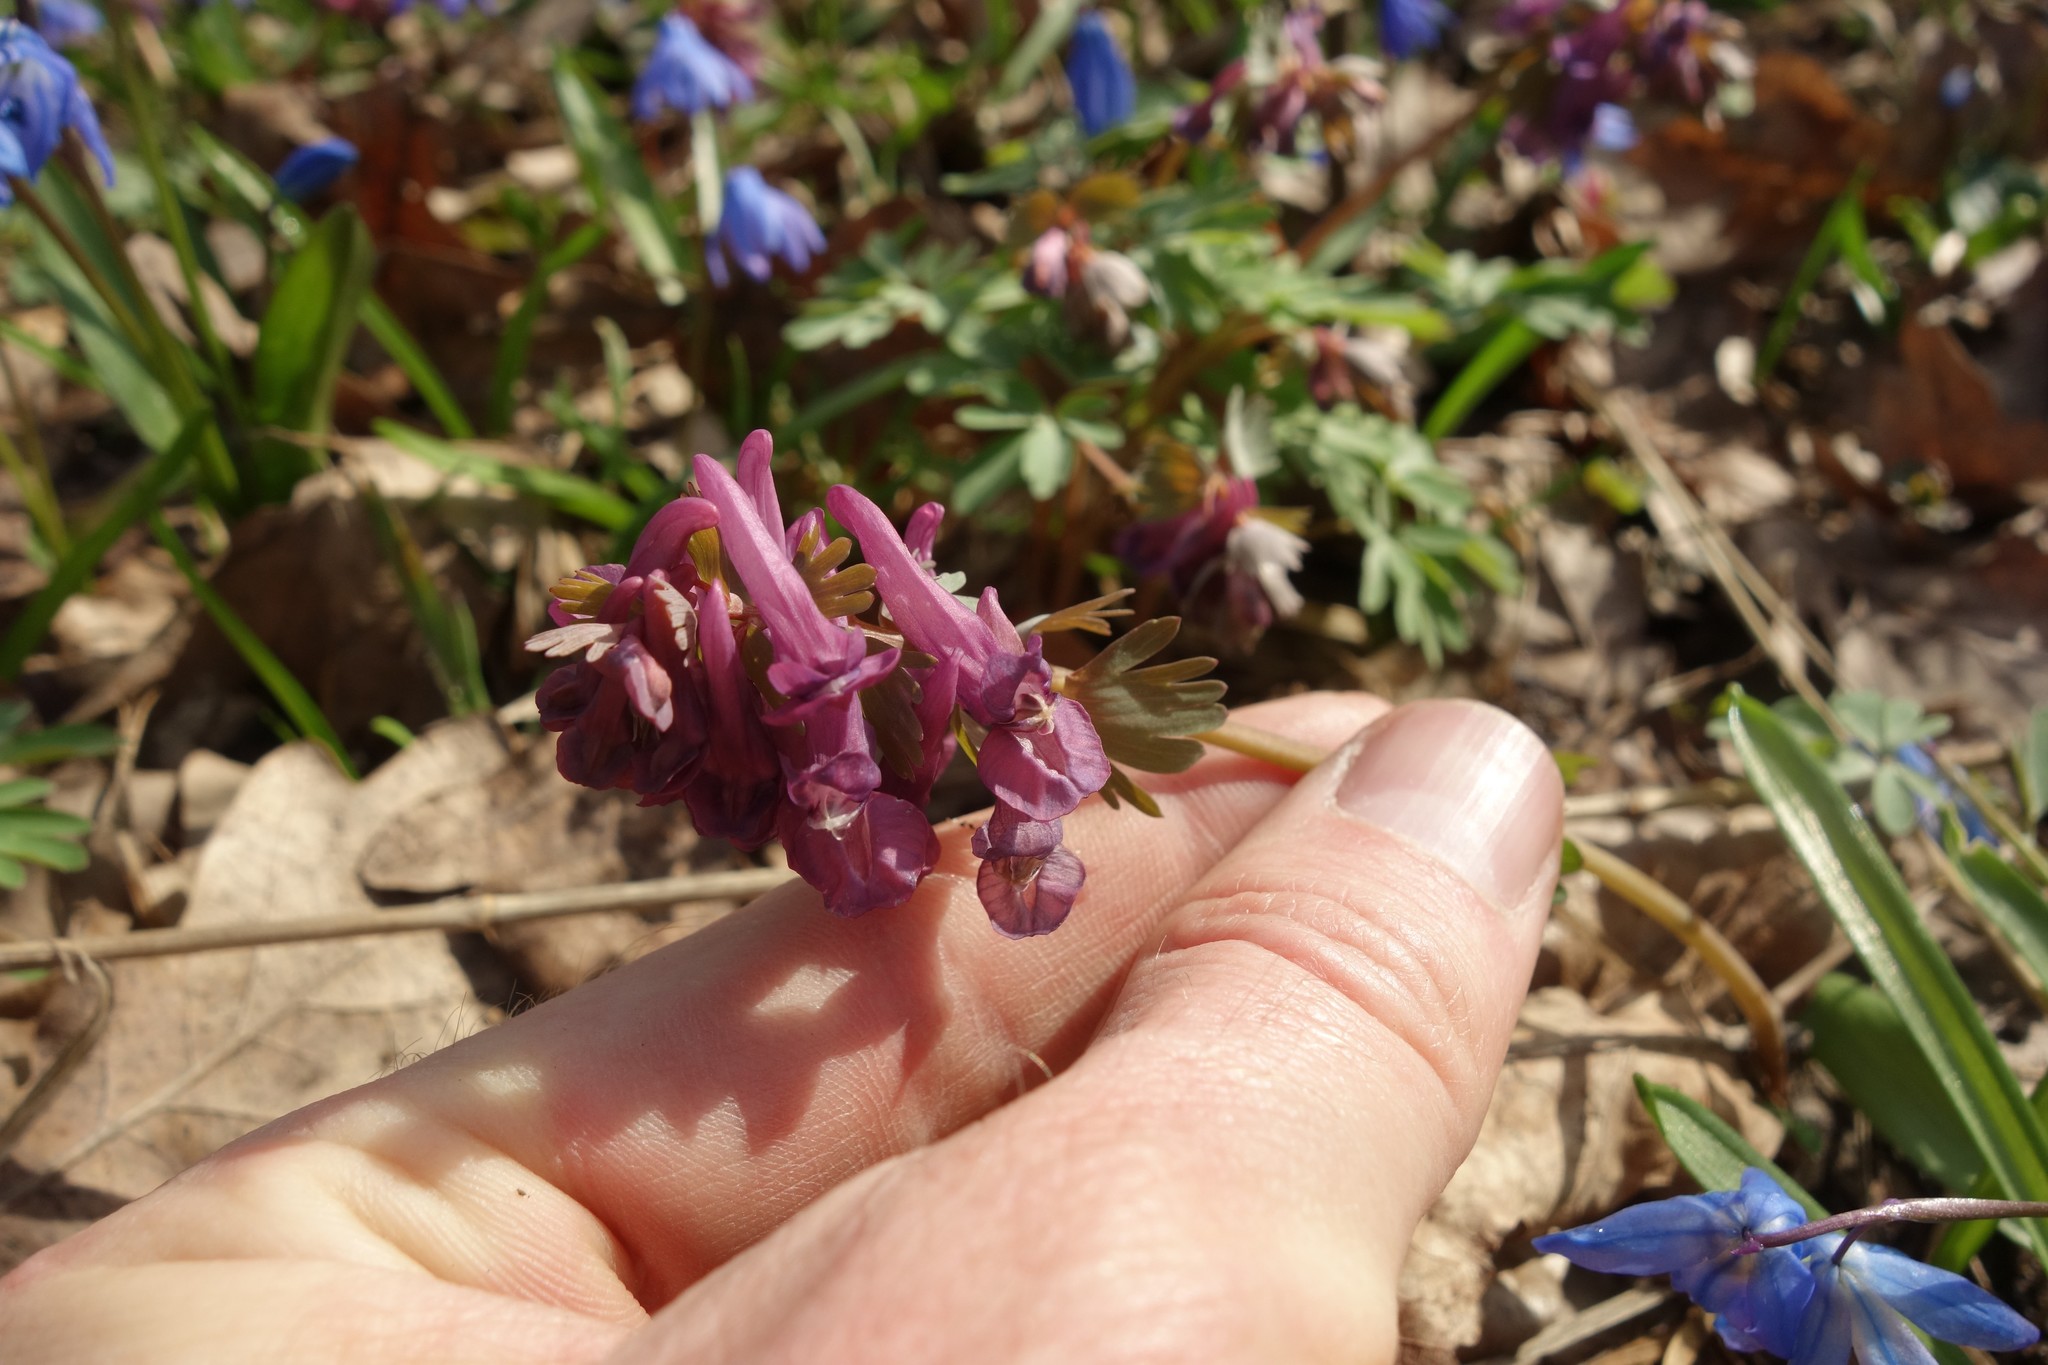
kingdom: Plantae
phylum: Tracheophyta
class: Magnoliopsida
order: Ranunculales
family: Papaveraceae
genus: Corydalis
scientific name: Corydalis solida
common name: Bird-in-a-bush
